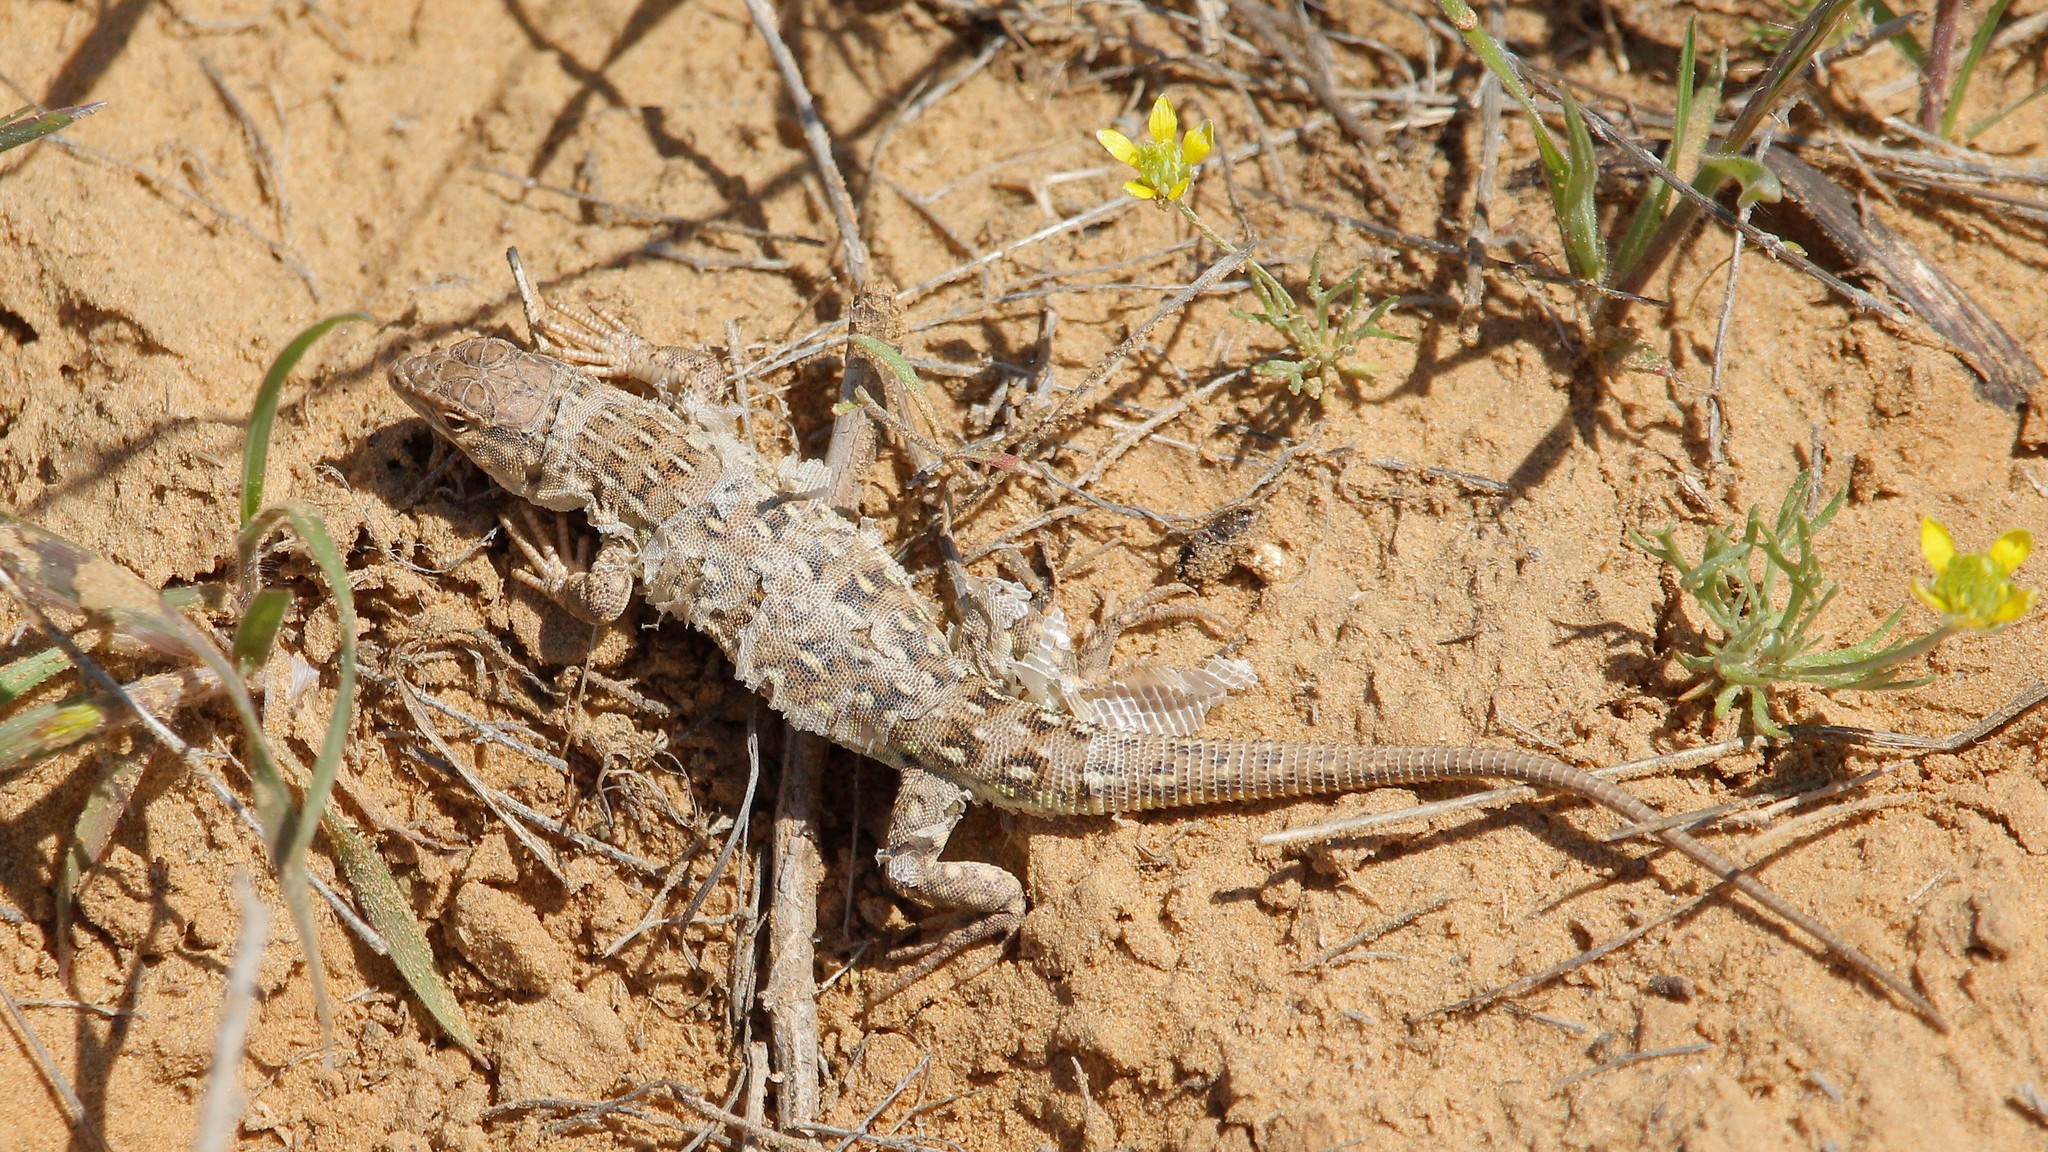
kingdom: Animalia
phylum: Chordata
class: Squamata
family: Lacertidae
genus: Eremias
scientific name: Eremias arguta
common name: Racerunner
